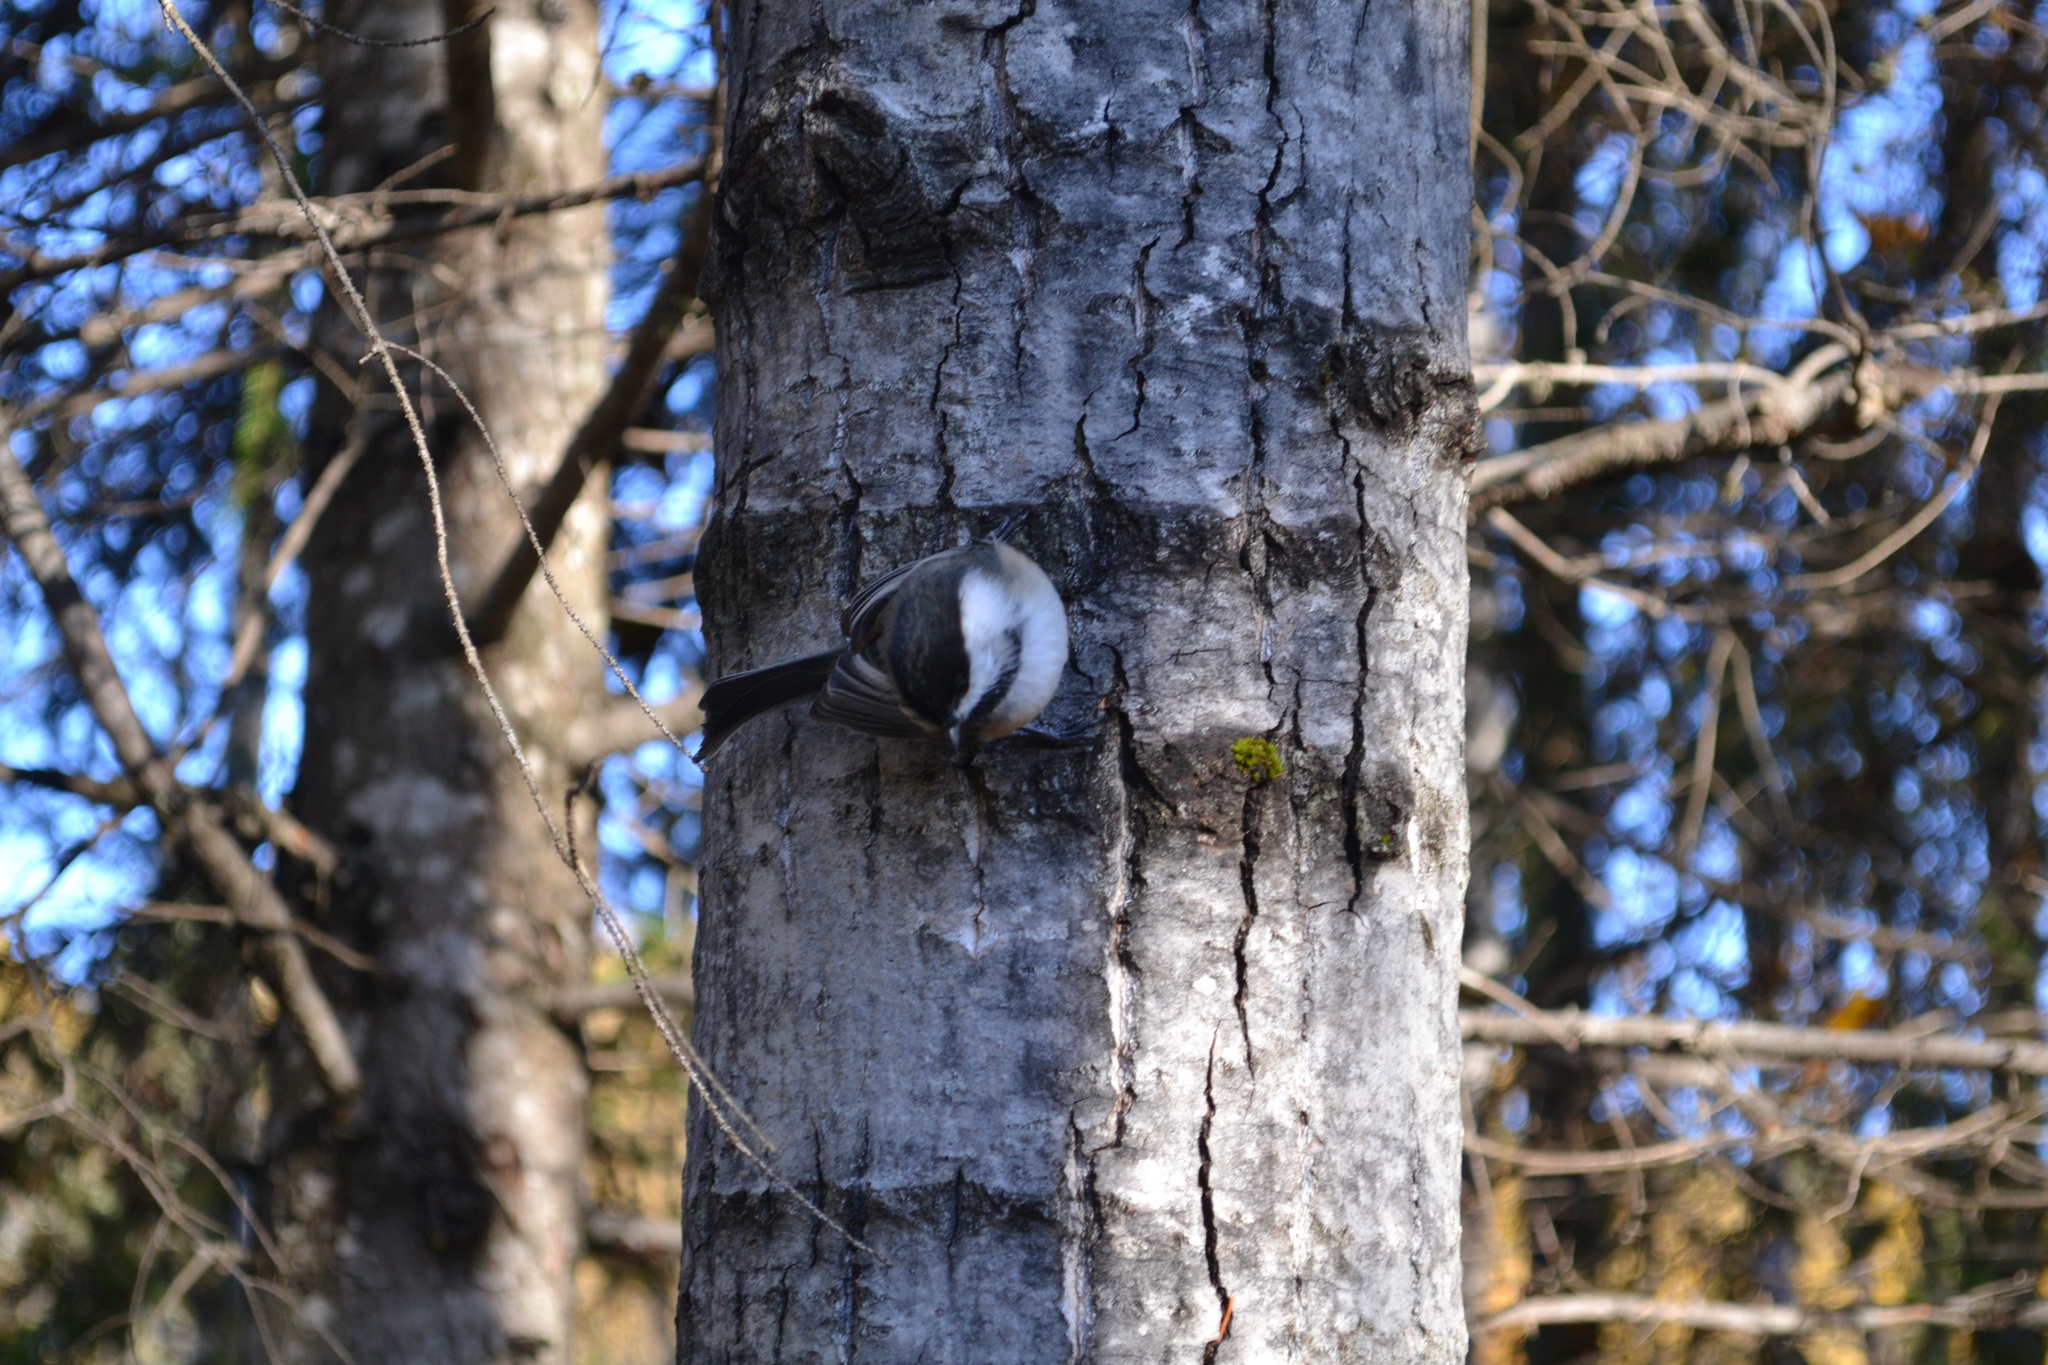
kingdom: Animalia
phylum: Chordata
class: Aves
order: Passeriformes
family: Paridae
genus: Poecile
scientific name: Poecile atricapillus
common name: Black-capped chickadee
